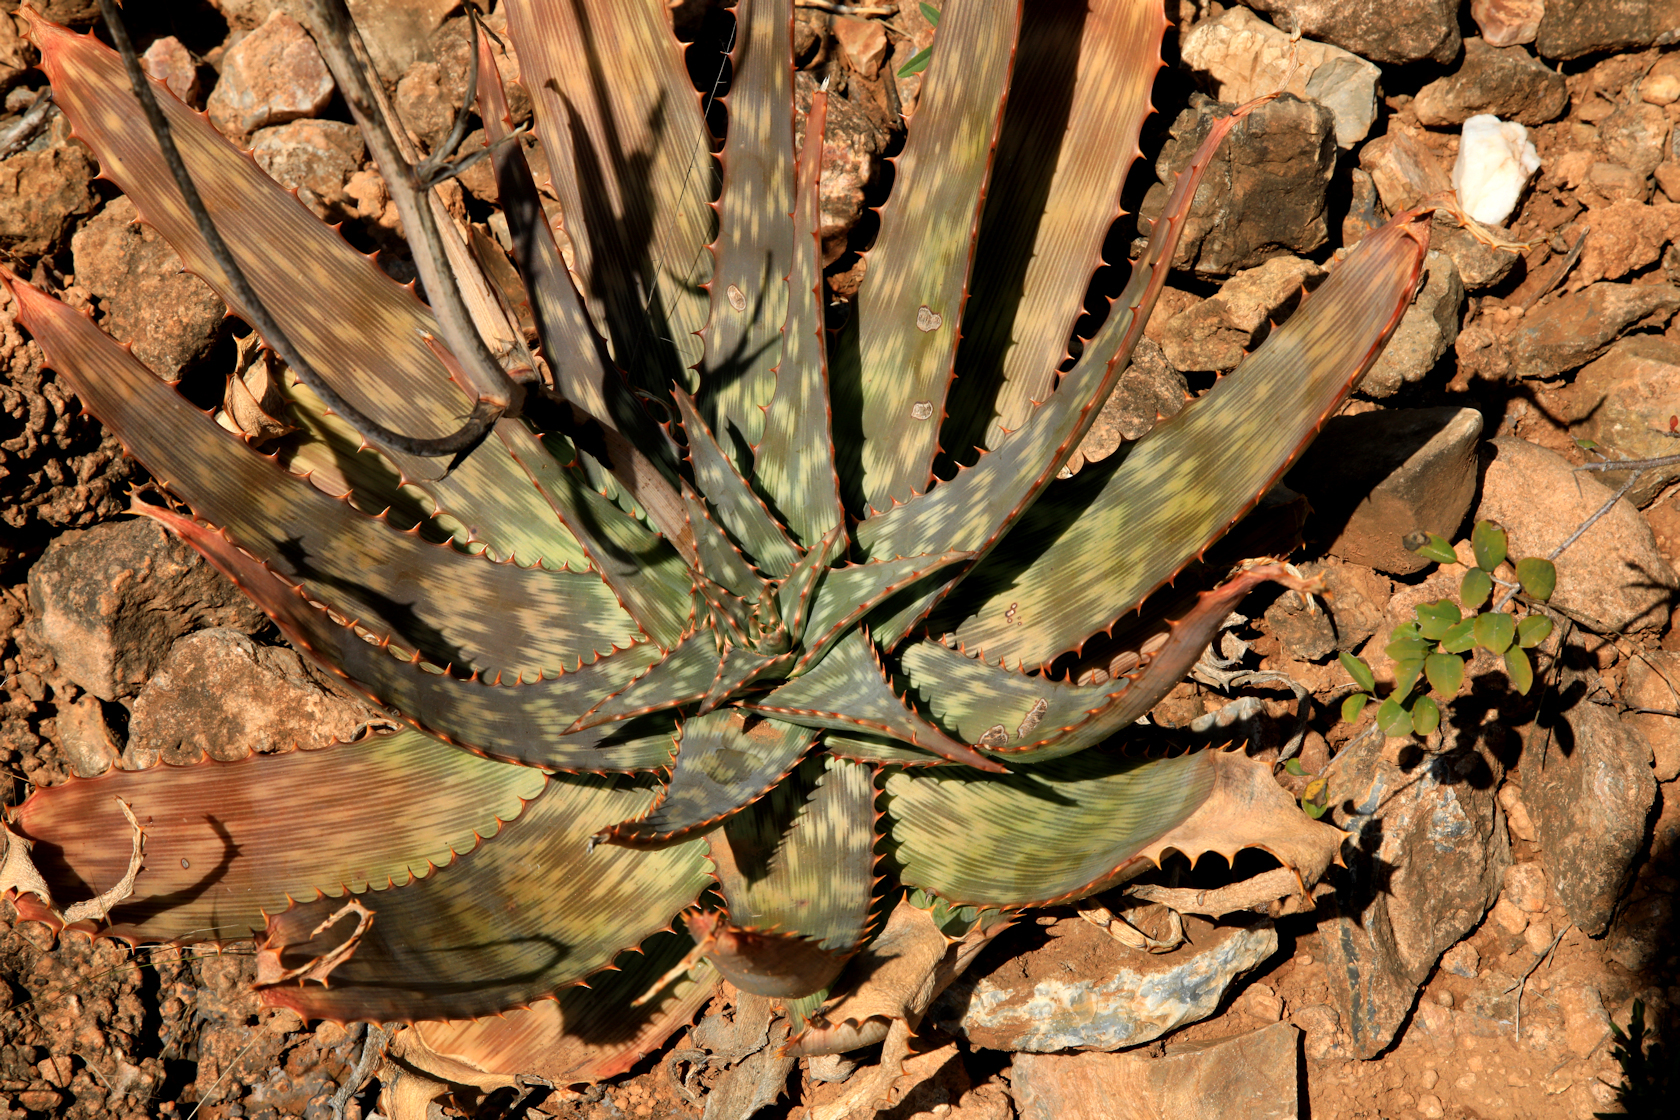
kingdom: Plantae
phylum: Tracheophyta
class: Liliopsida
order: Asparagales
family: Asphodelaceae
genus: Aloe
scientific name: Aloe fosteri
